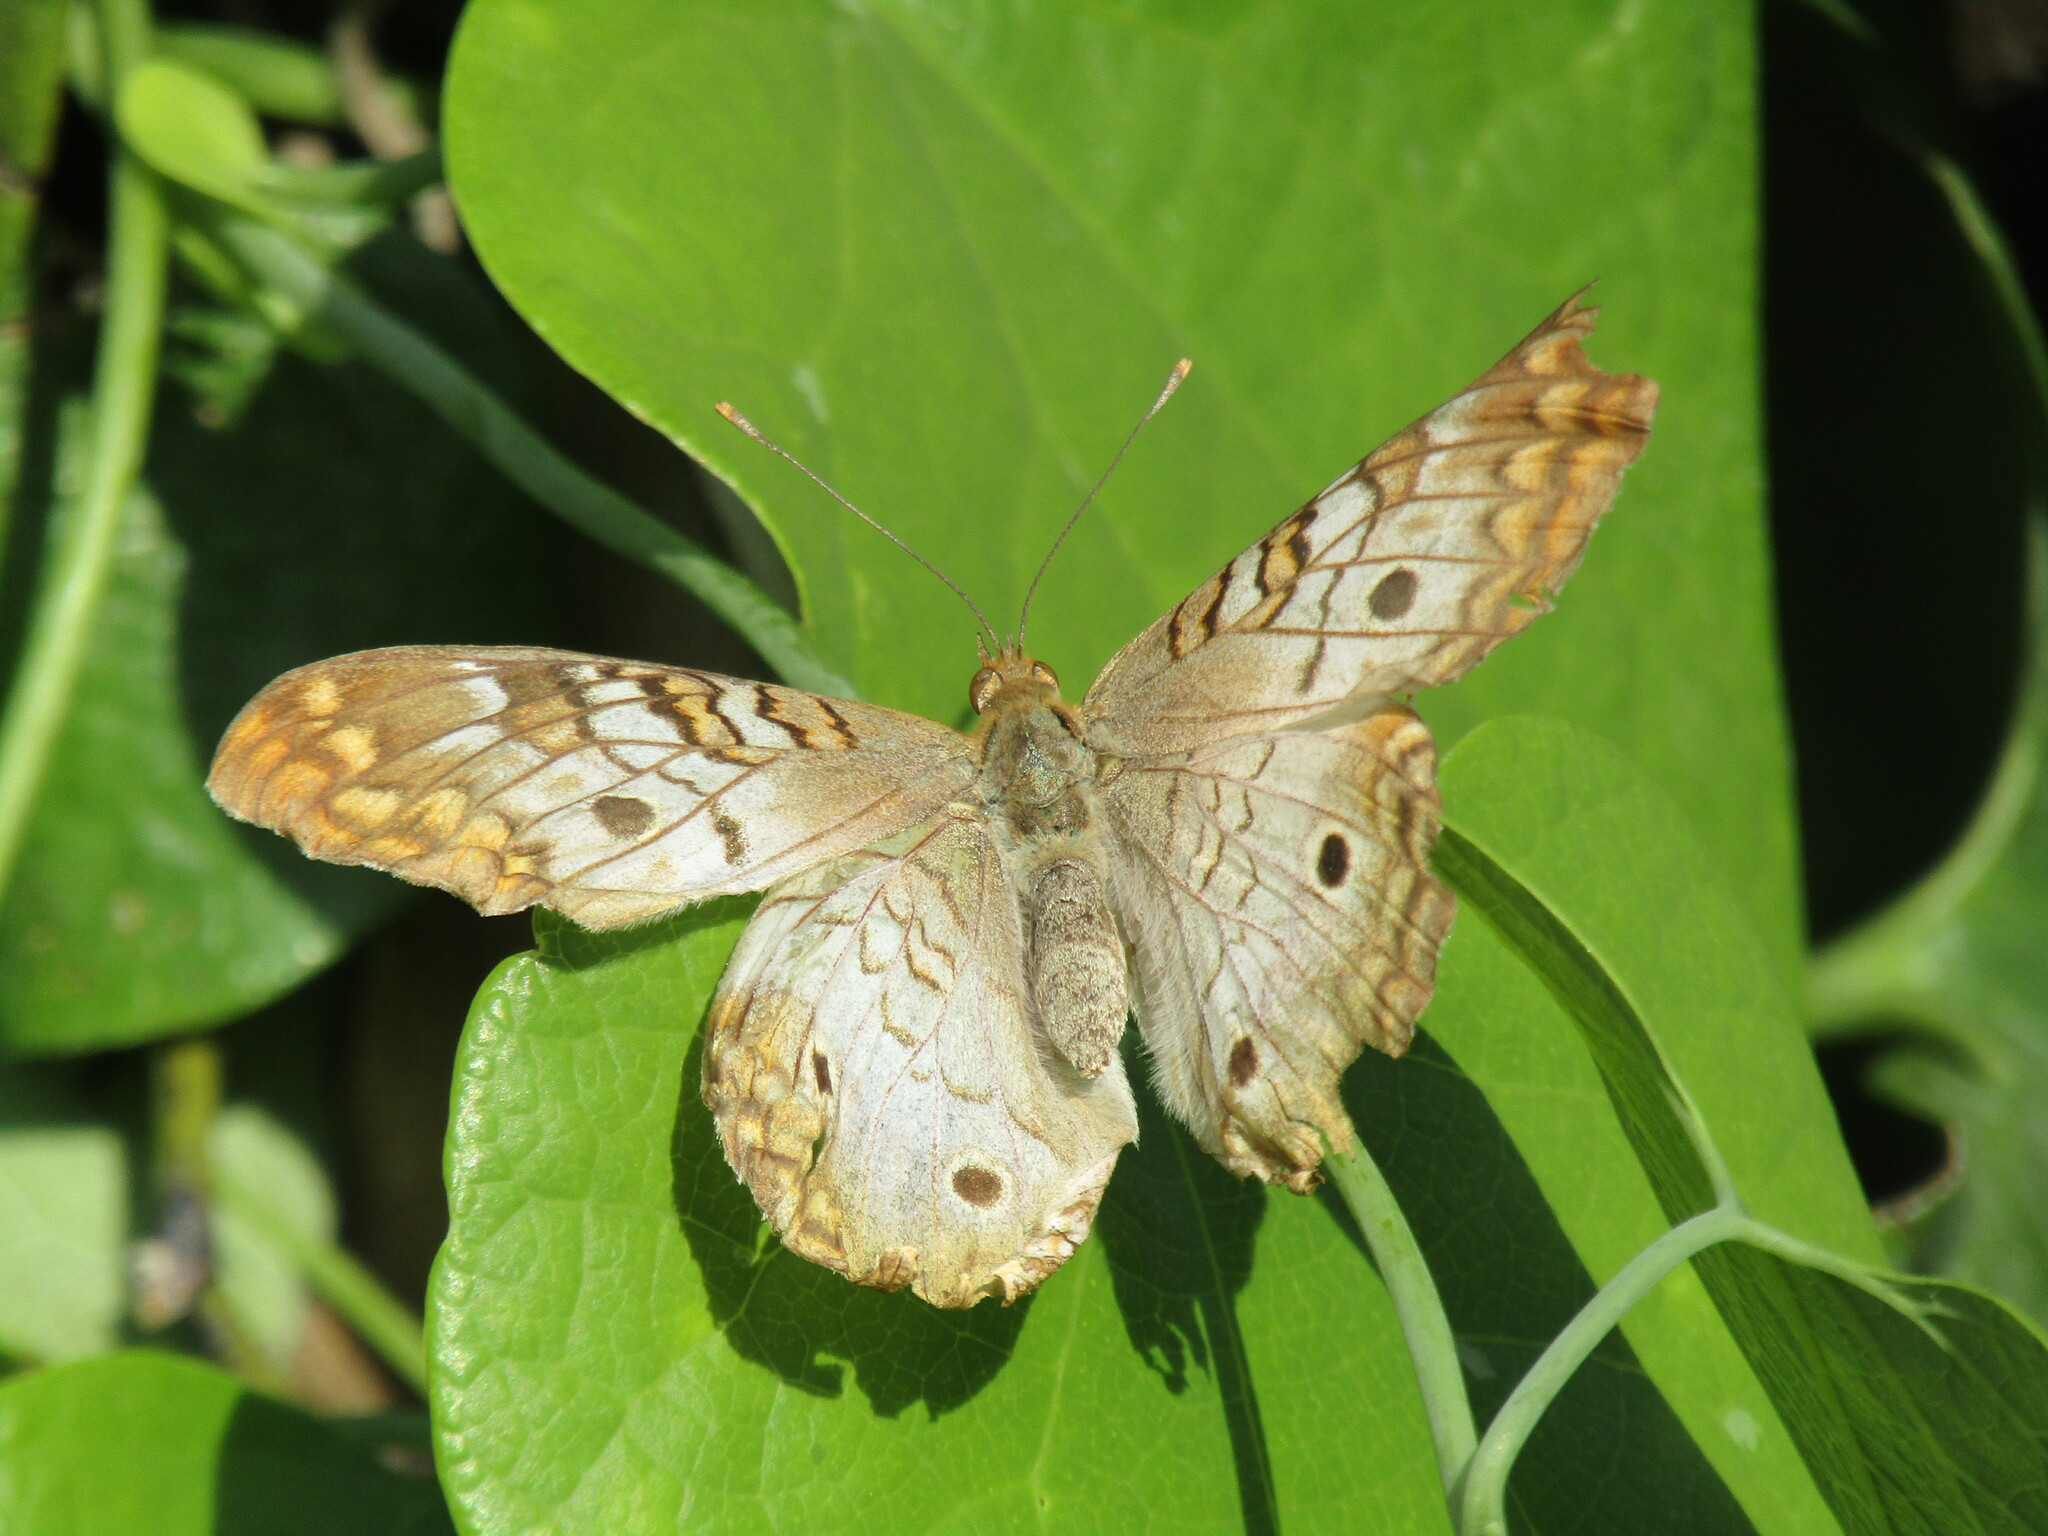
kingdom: Animalia
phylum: Arthropoda
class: Insecta
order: Lepidoptera
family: Nymphalidae
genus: Anartia
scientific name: Anartia jatrophae
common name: White peacock
